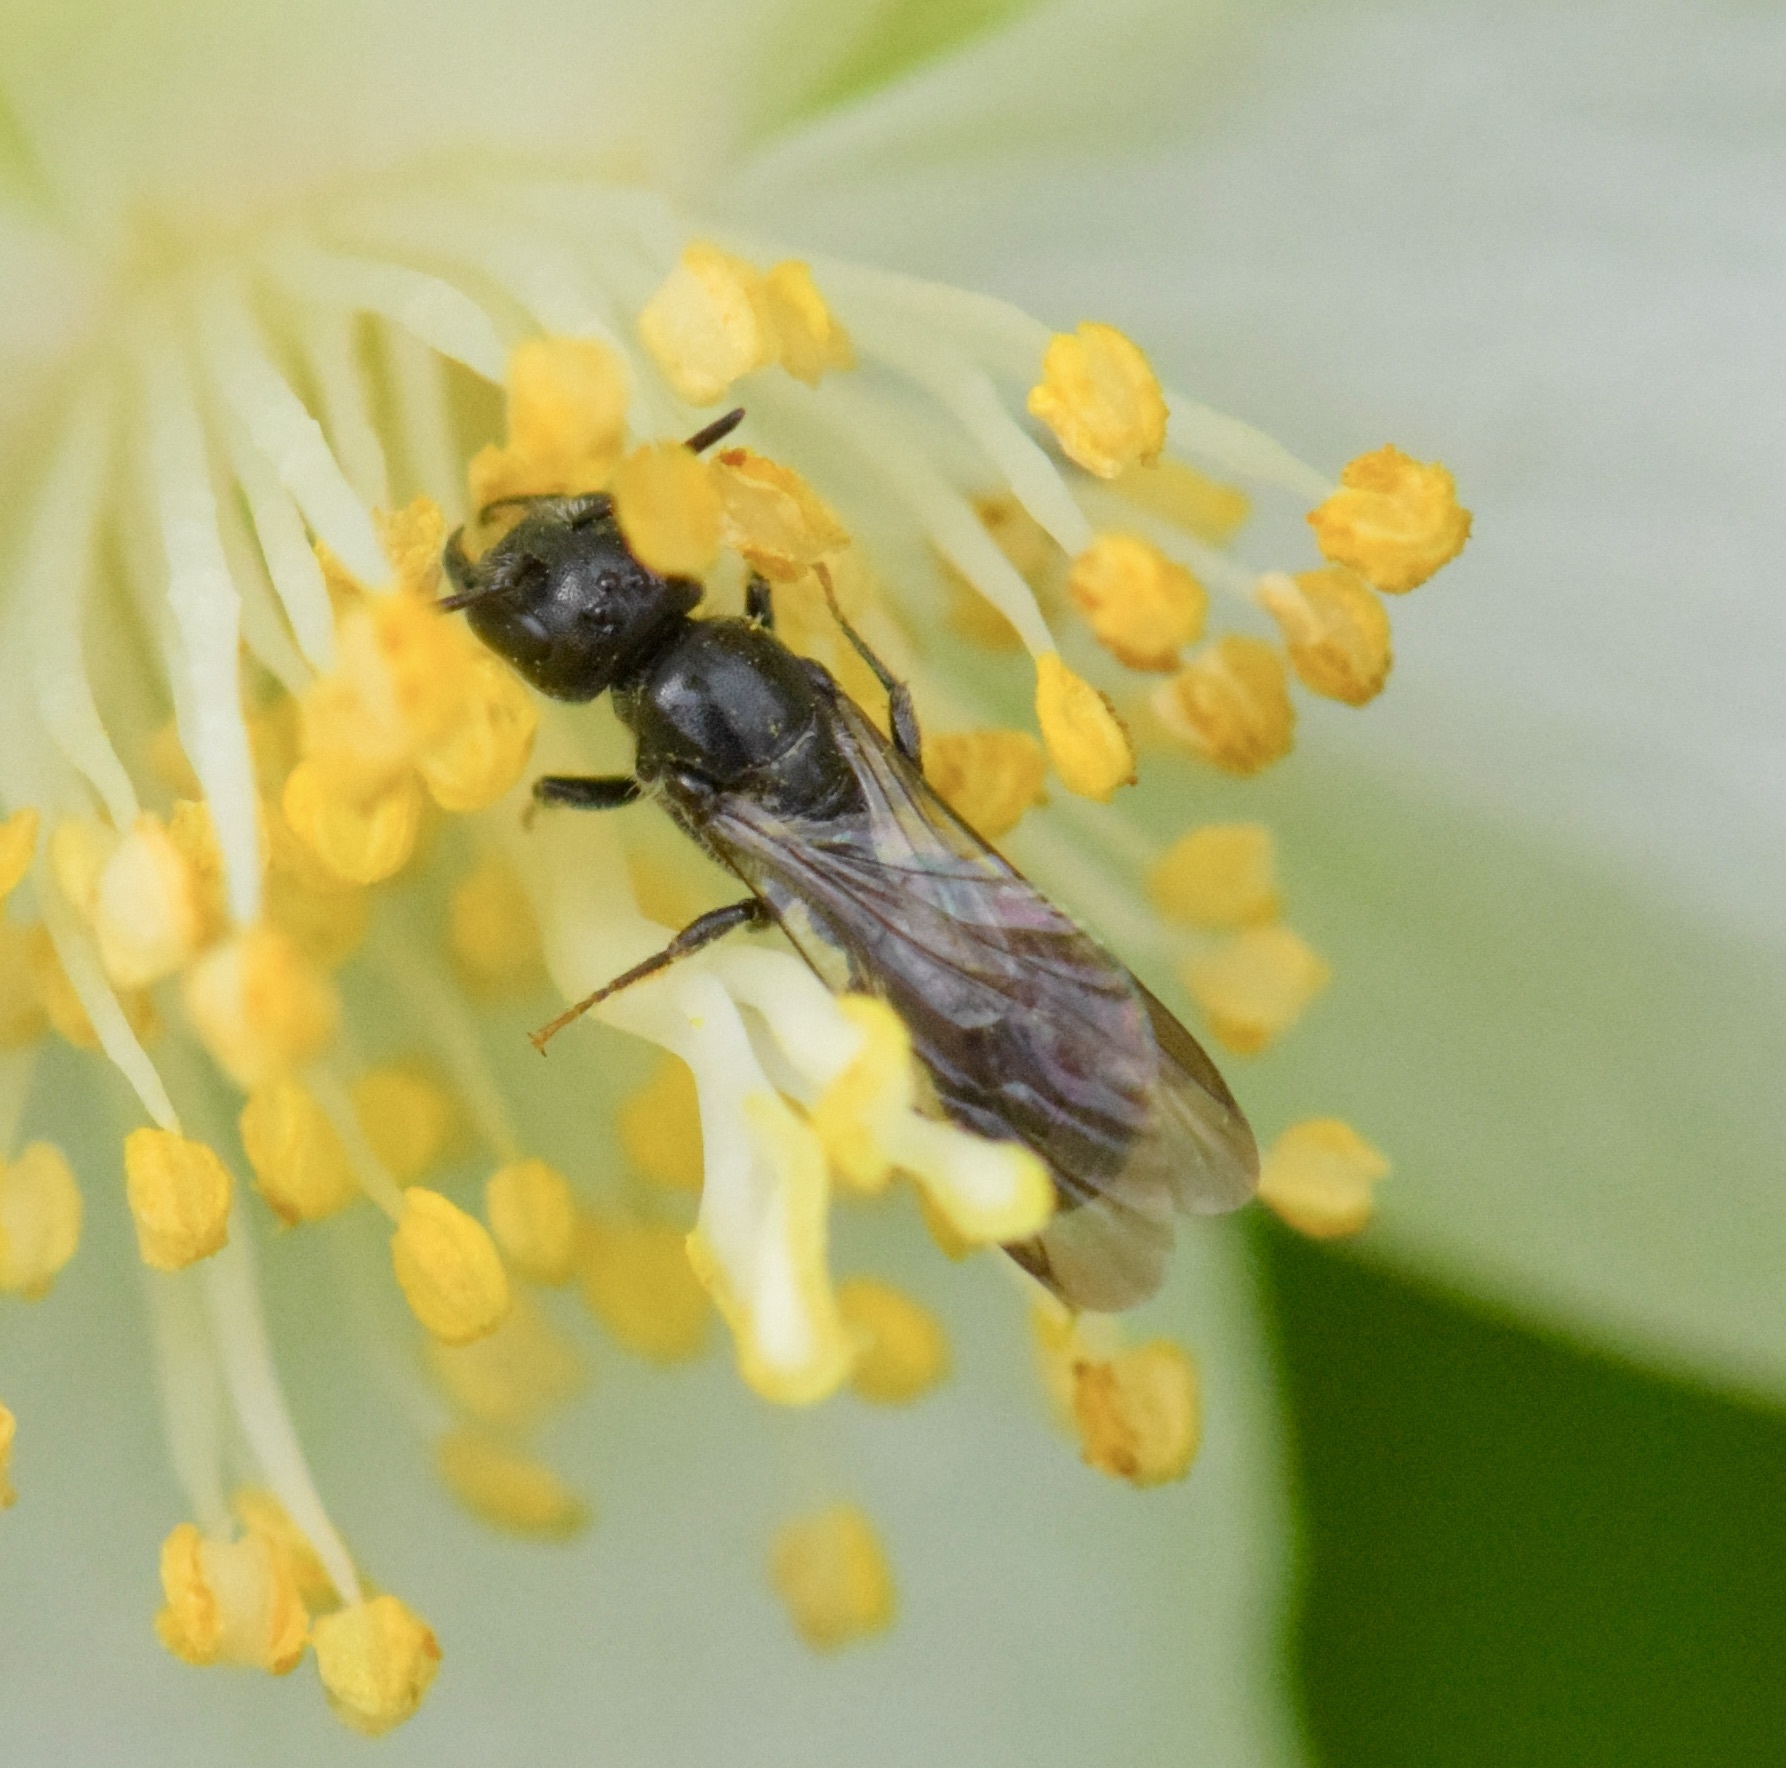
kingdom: Animalia
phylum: Arthropoda
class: Insecta
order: Hymenoptera
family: Megachilidae
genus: Chelostoma
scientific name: Chelostoma philadelphi
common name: Mock-orange scissor bee
